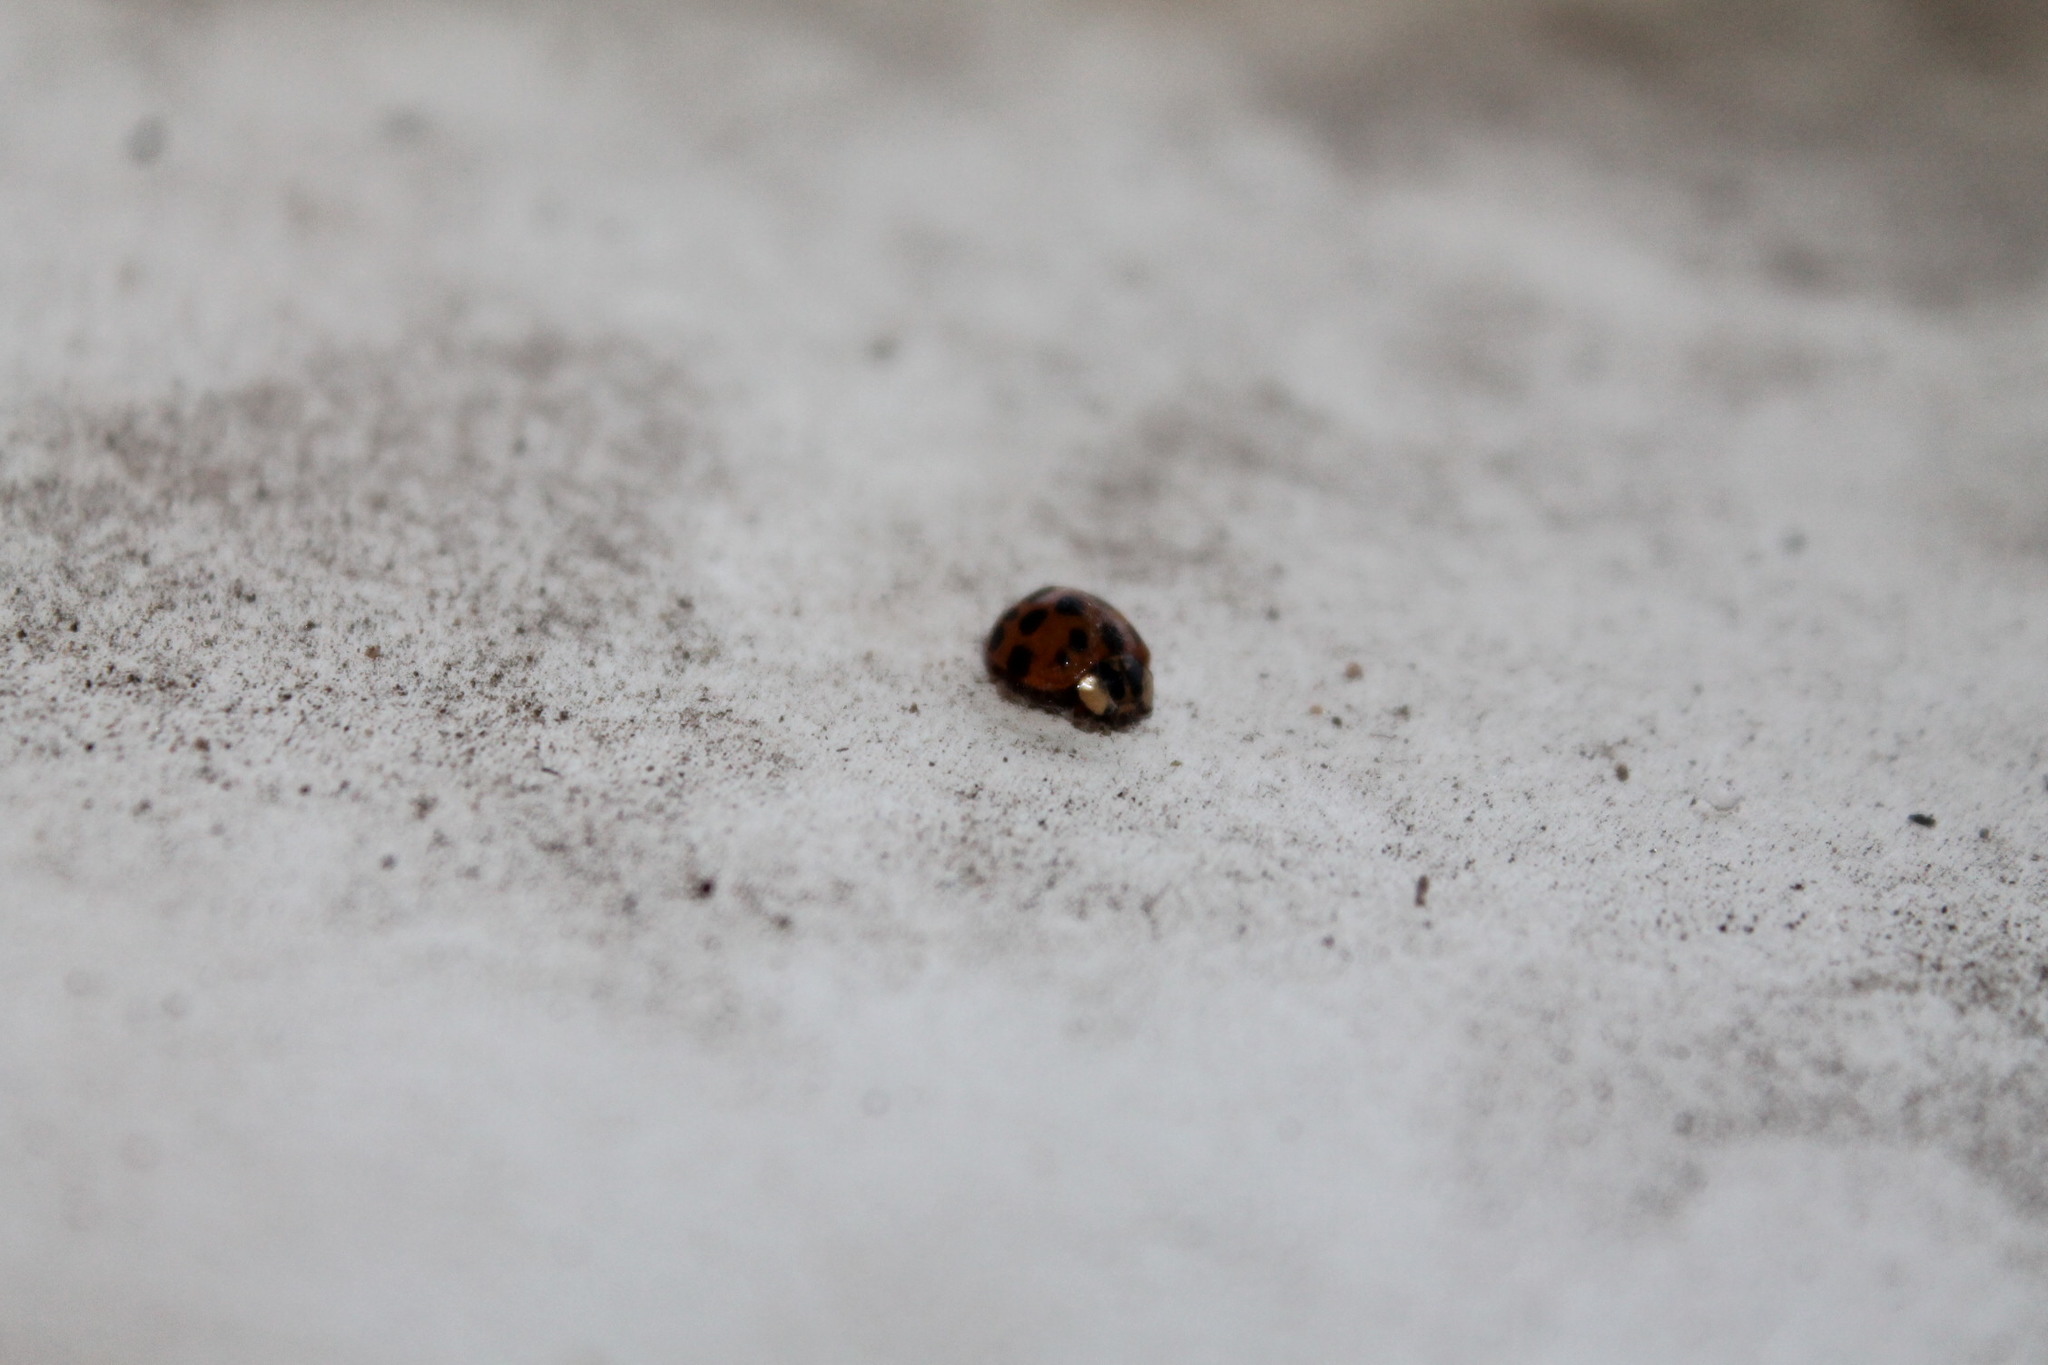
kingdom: Animalia
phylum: Arthropoda
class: Insecta
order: Coleoptera
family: Coccinellidae
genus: Harmonia
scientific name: Harmonia axyridis
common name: Harlequin ladybird
